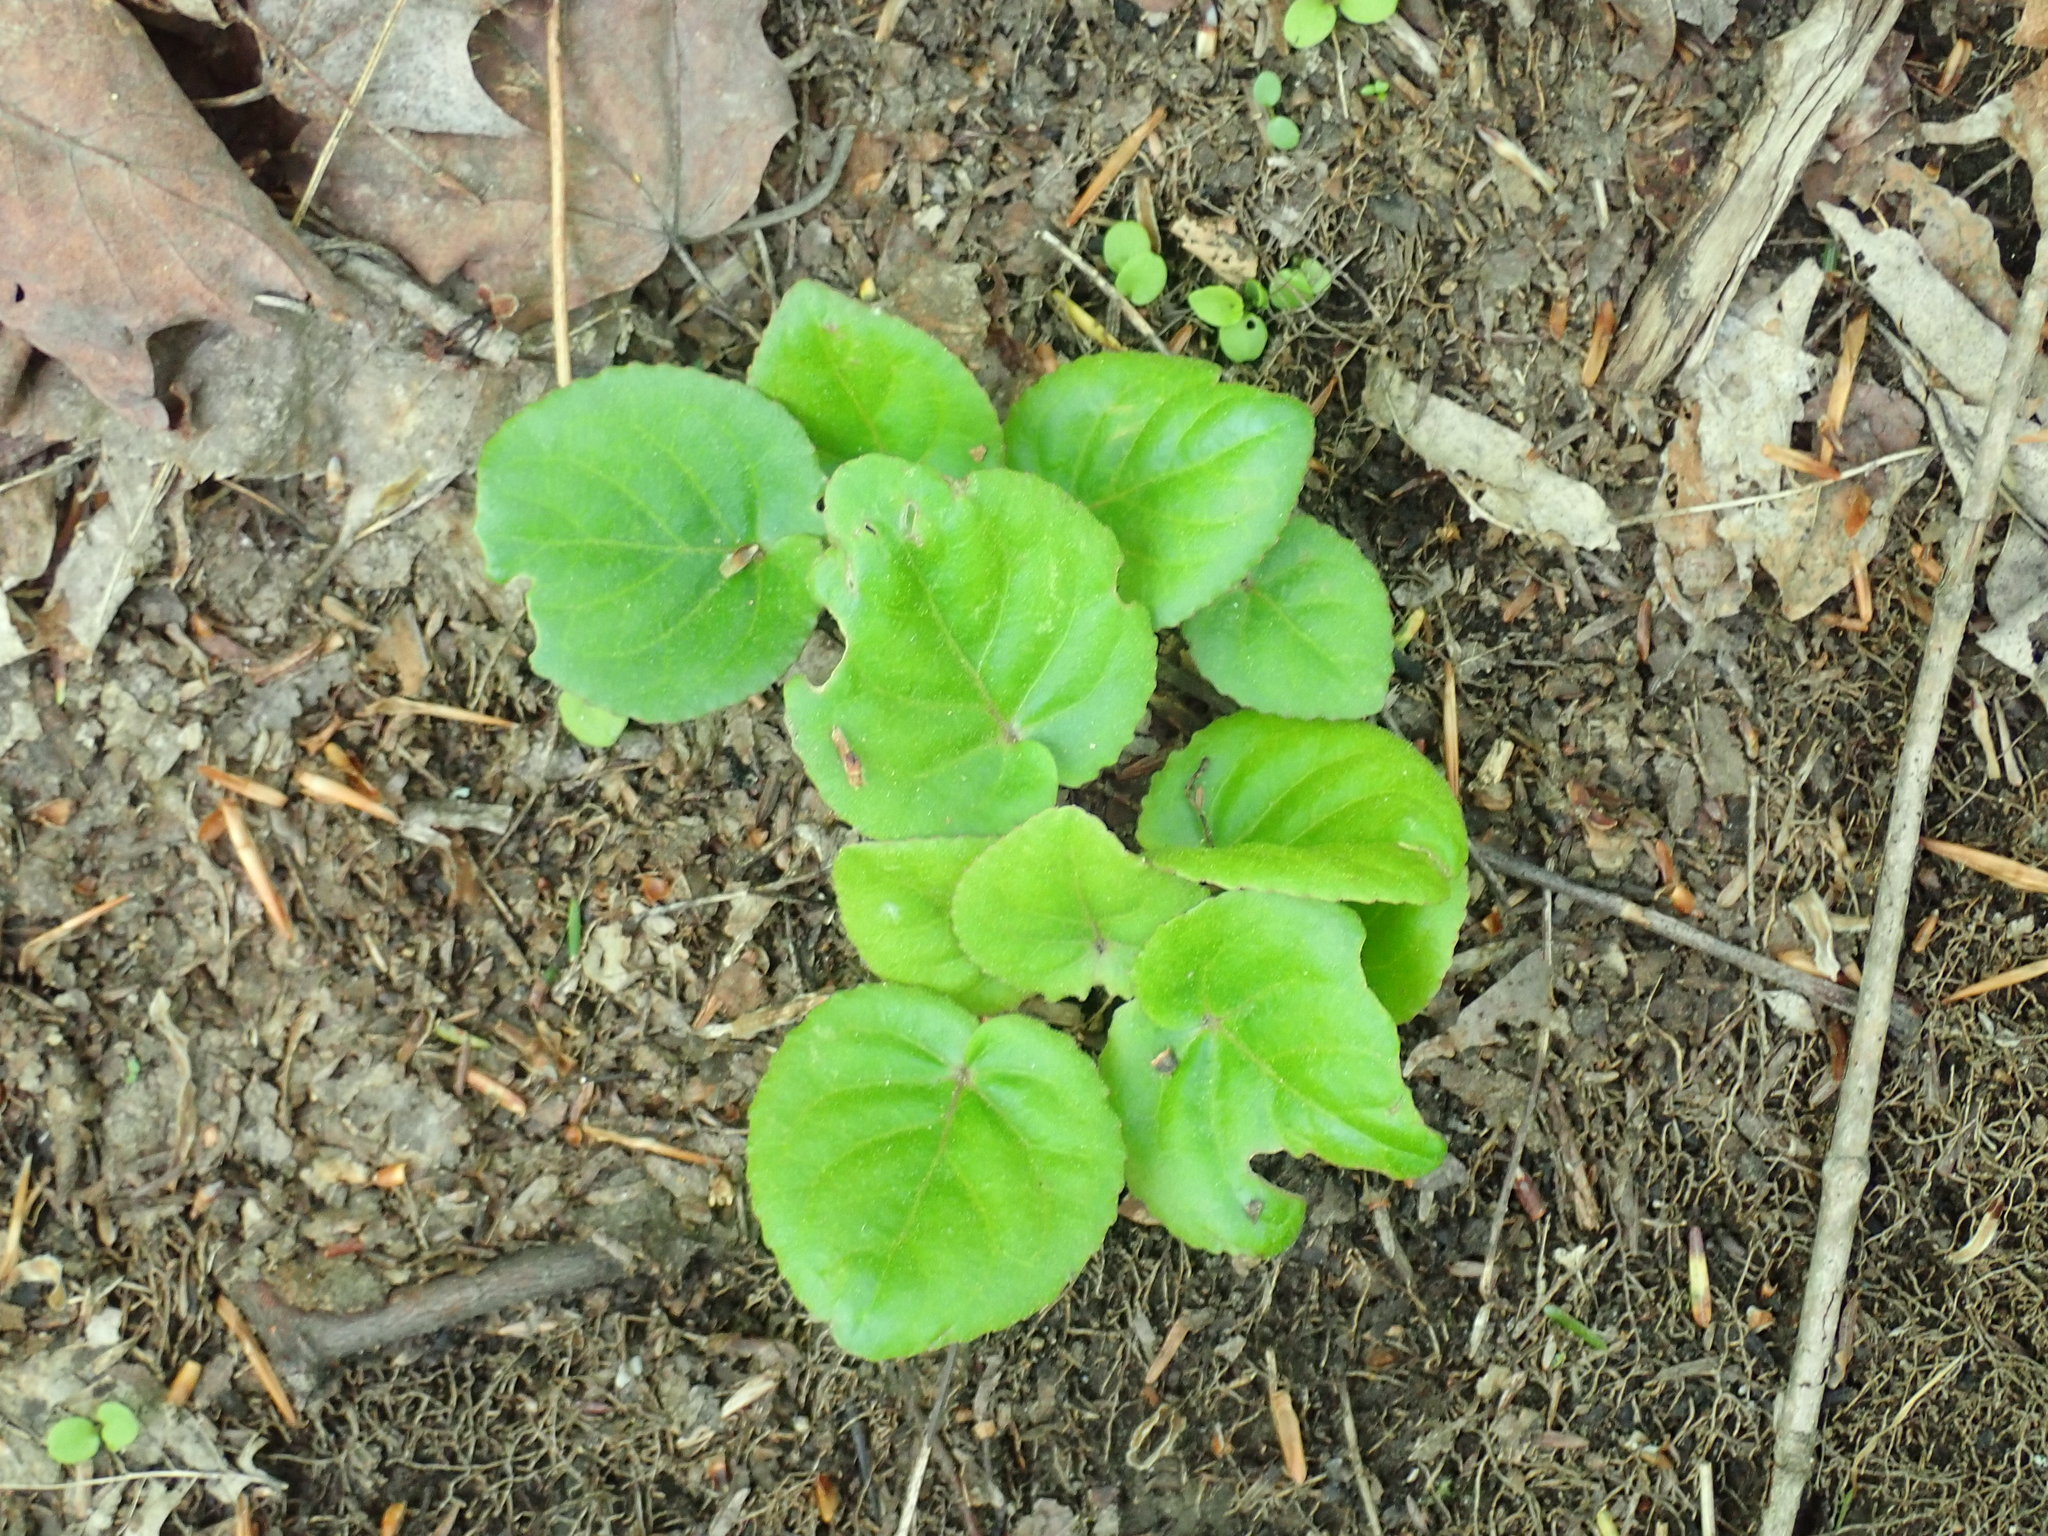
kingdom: Plantae
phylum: Tracheophyta
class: Magnoliopsida
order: Malpighiales
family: Violaceae
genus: Viola
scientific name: Viola rotundifolia
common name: Early yellow violet
